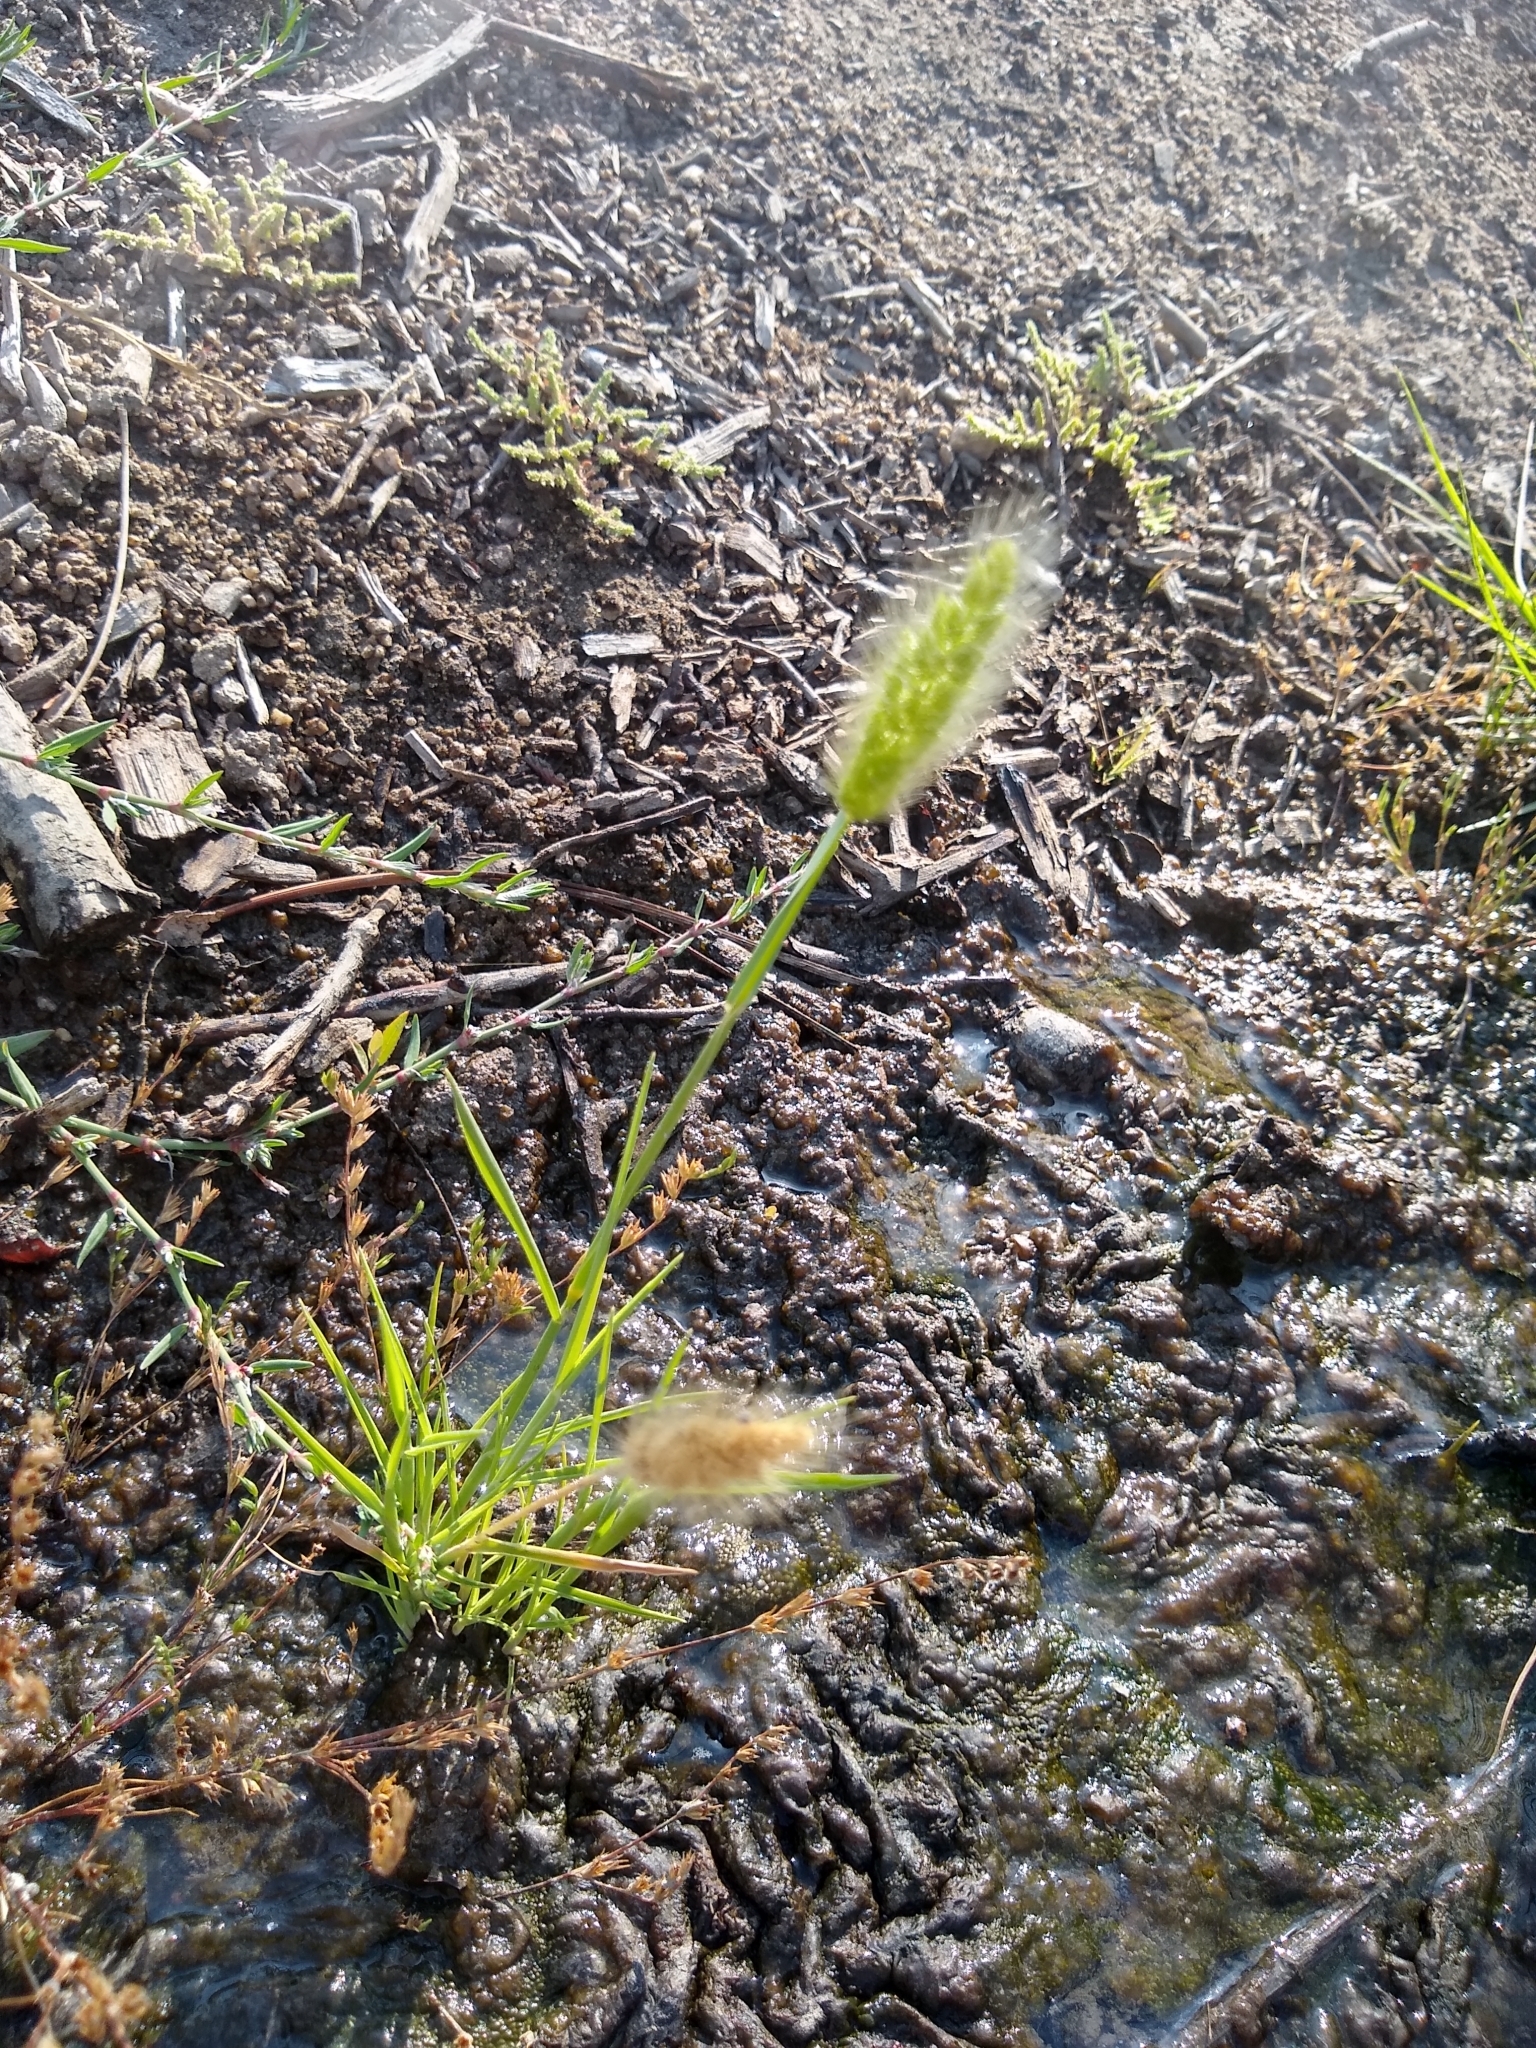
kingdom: Plantae
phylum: Tracheophyta
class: Liliopsida
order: Poales
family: Poaceae
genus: Polypogon
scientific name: Polypogon monspeliensis
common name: Annual rabbitsfoot grass
